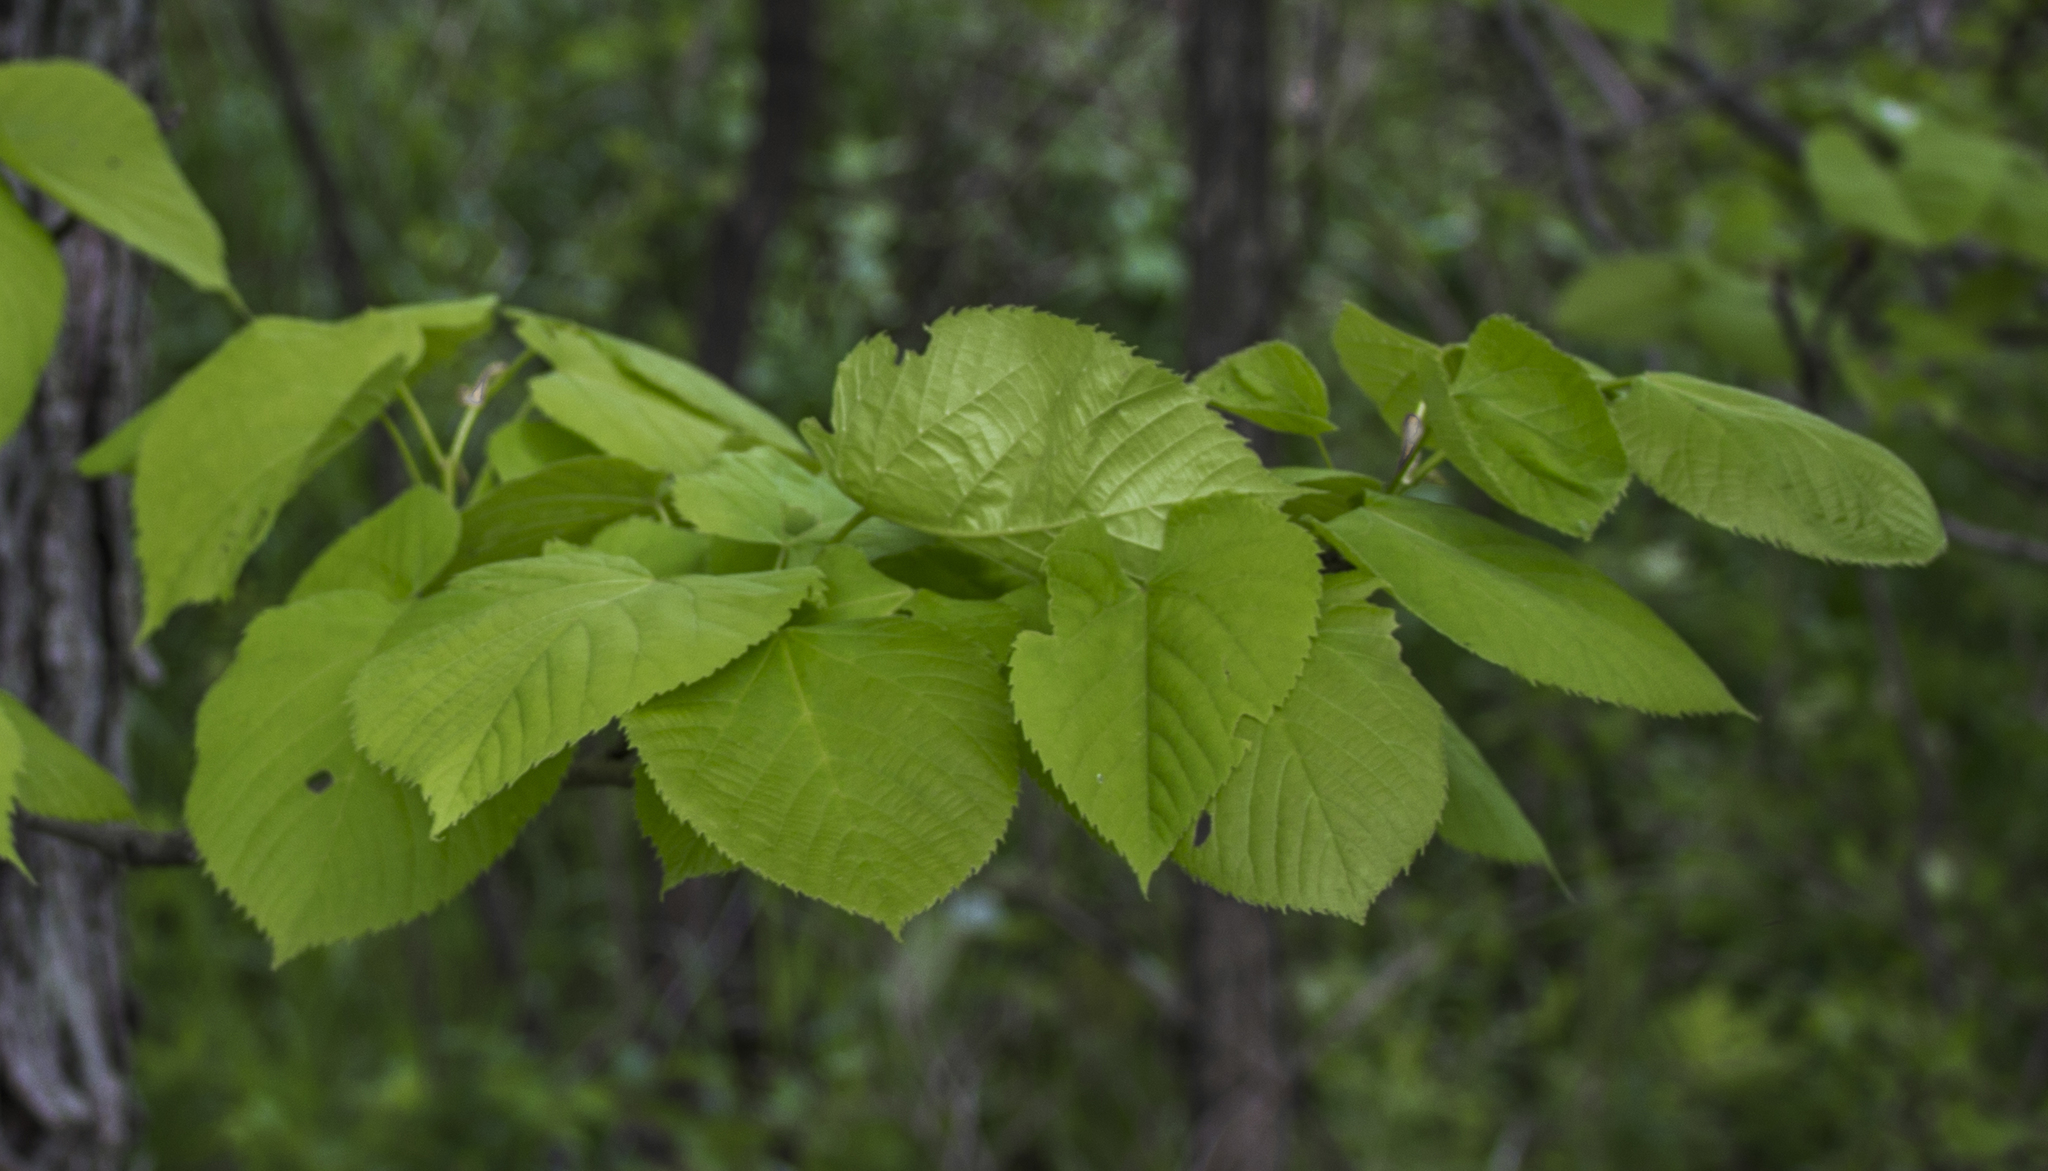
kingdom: Plantae
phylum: Tracheophyta
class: Magnoliopsida
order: Malvales
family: Malvaceae
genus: Tilia
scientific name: Tilia americana
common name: Basswood
